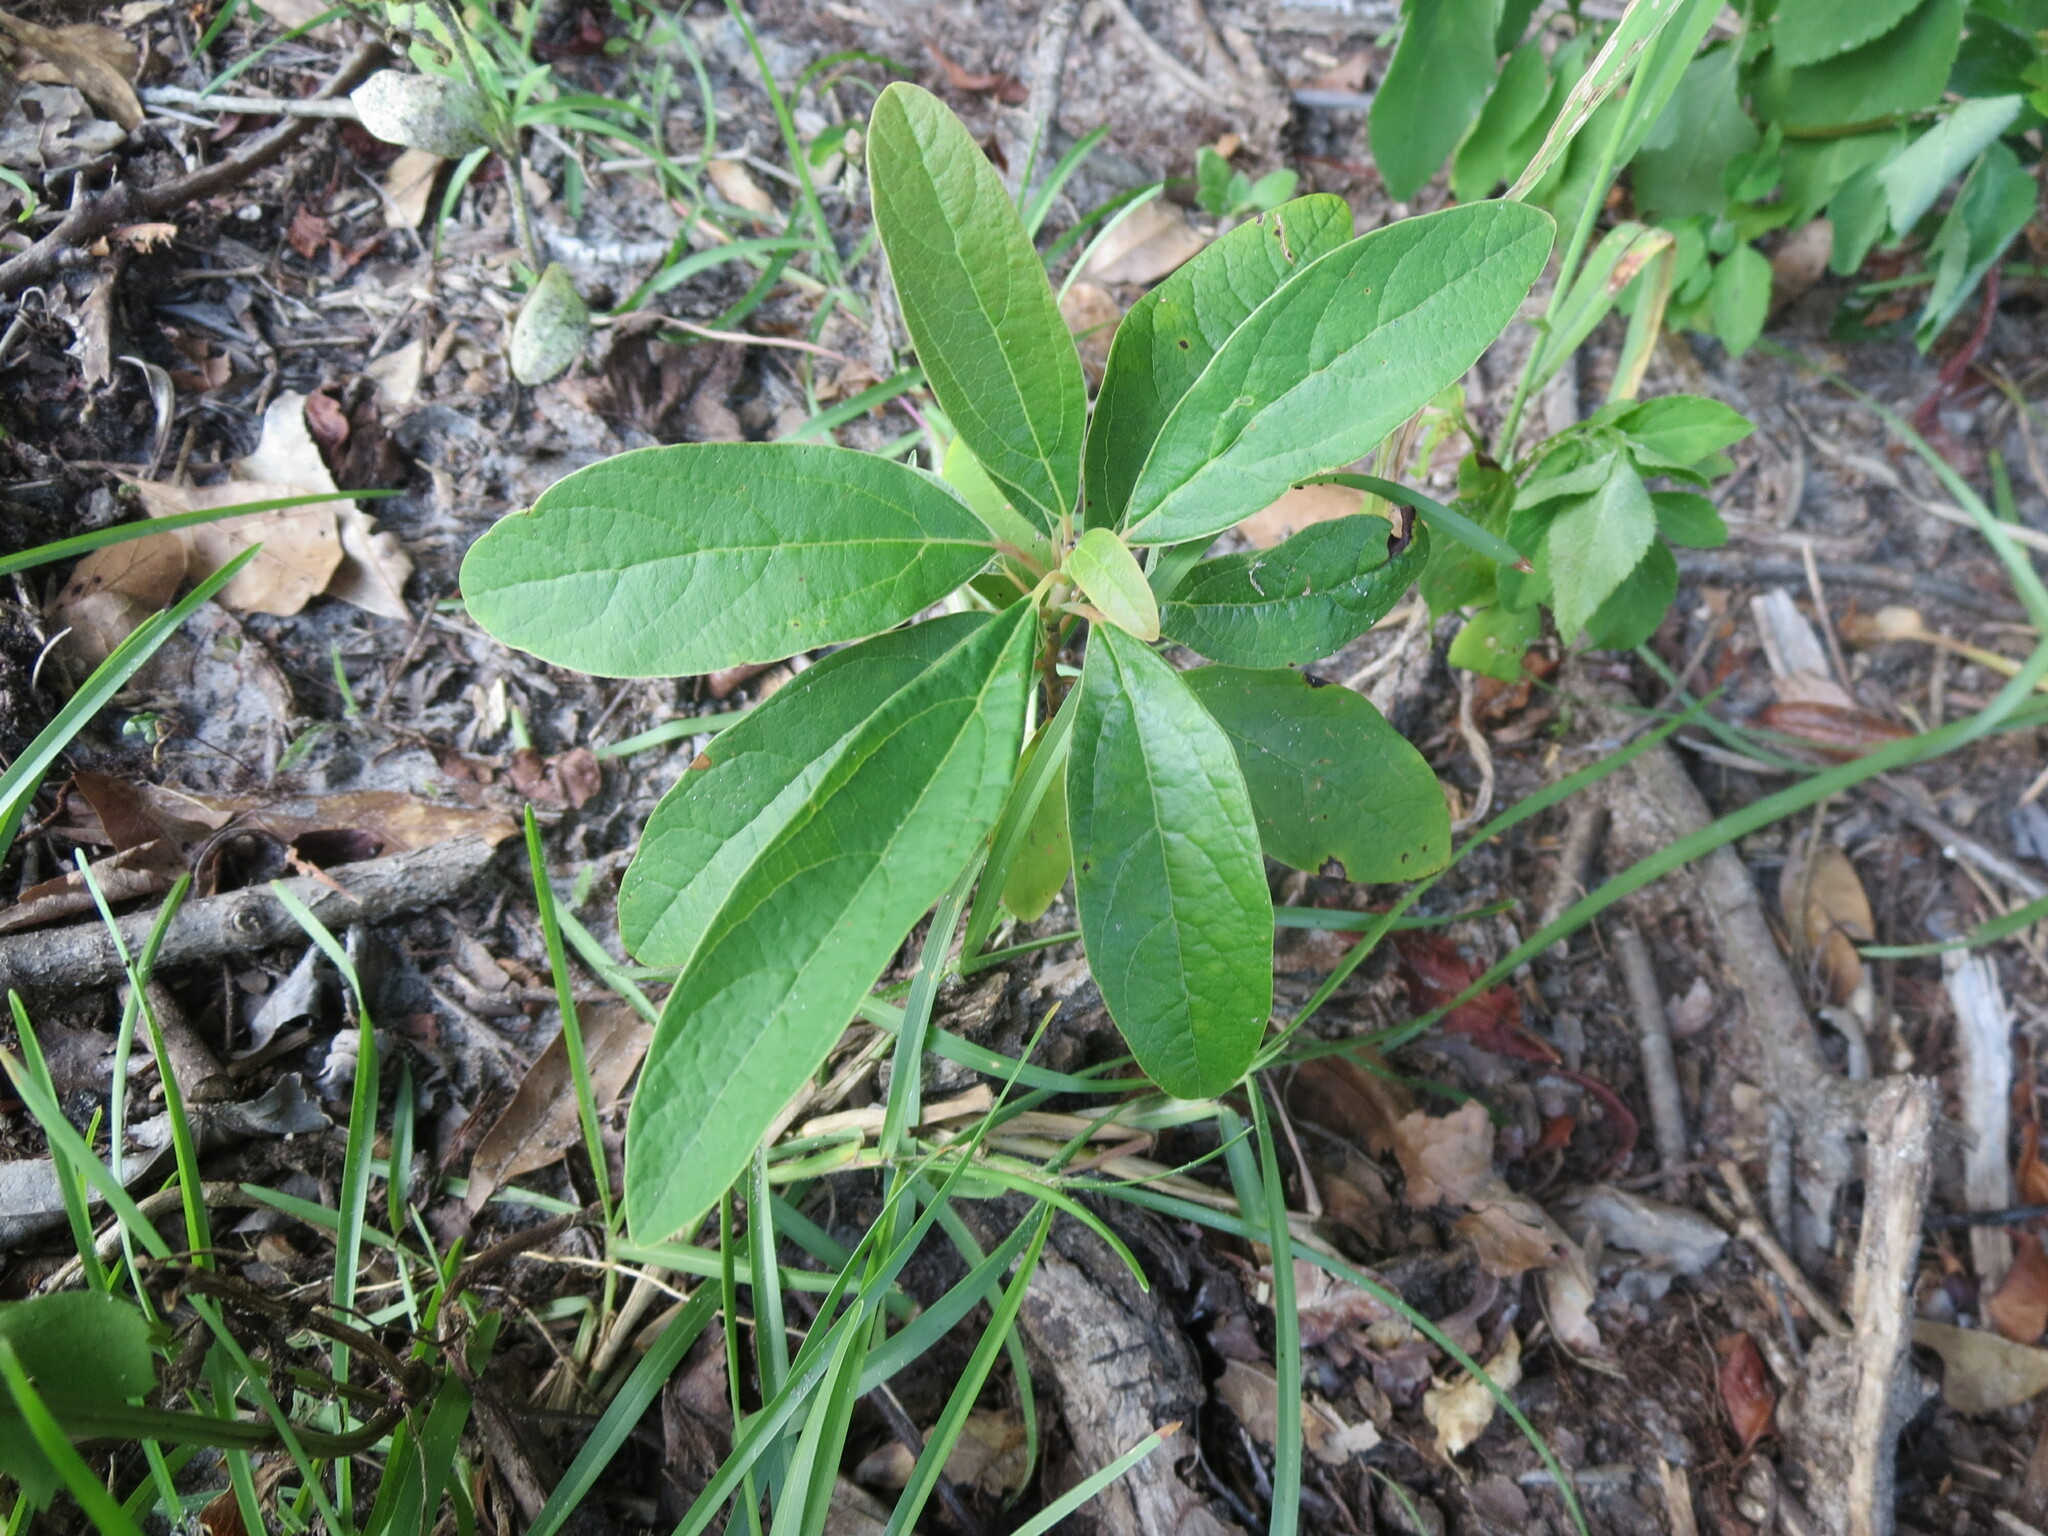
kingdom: Plantae
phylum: Tracheophyta
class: Magnoliopsida
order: Laurales
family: Lauraceae
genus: Sassafras
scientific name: Sassafras albidum
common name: Sassafras
